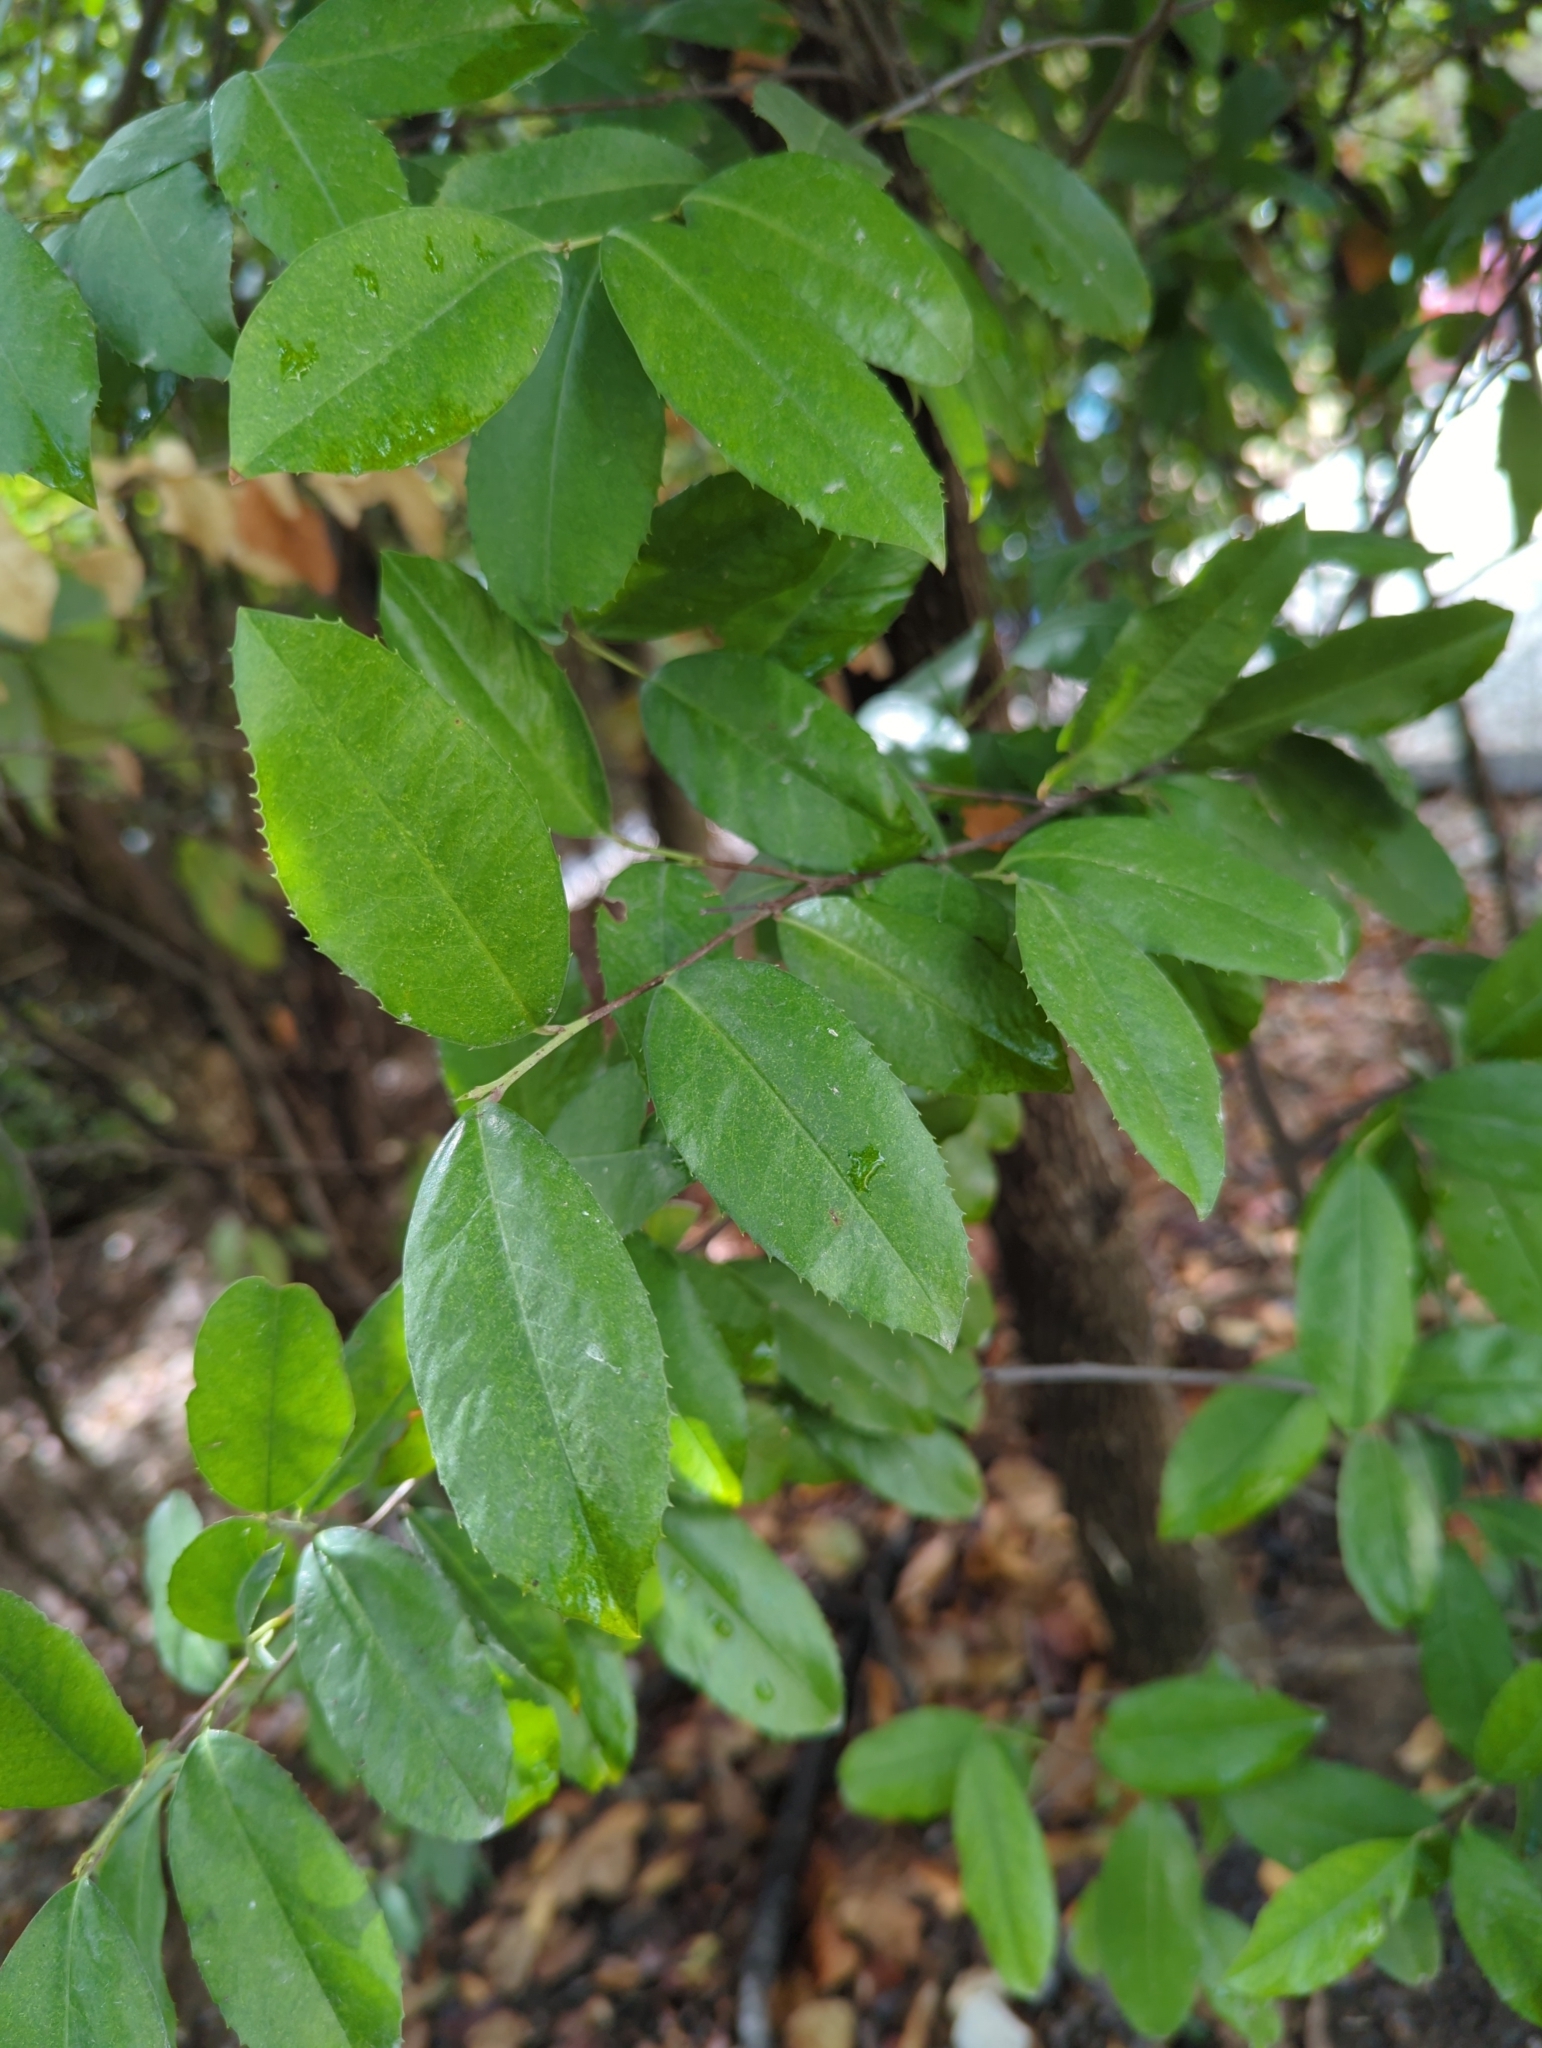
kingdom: Plantae
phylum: Tracheophyta
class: Magnoliopsida
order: Rosales
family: Rosaceae
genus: Prunus
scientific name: Prunus caroliniana
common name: Carolina laurel cherry
